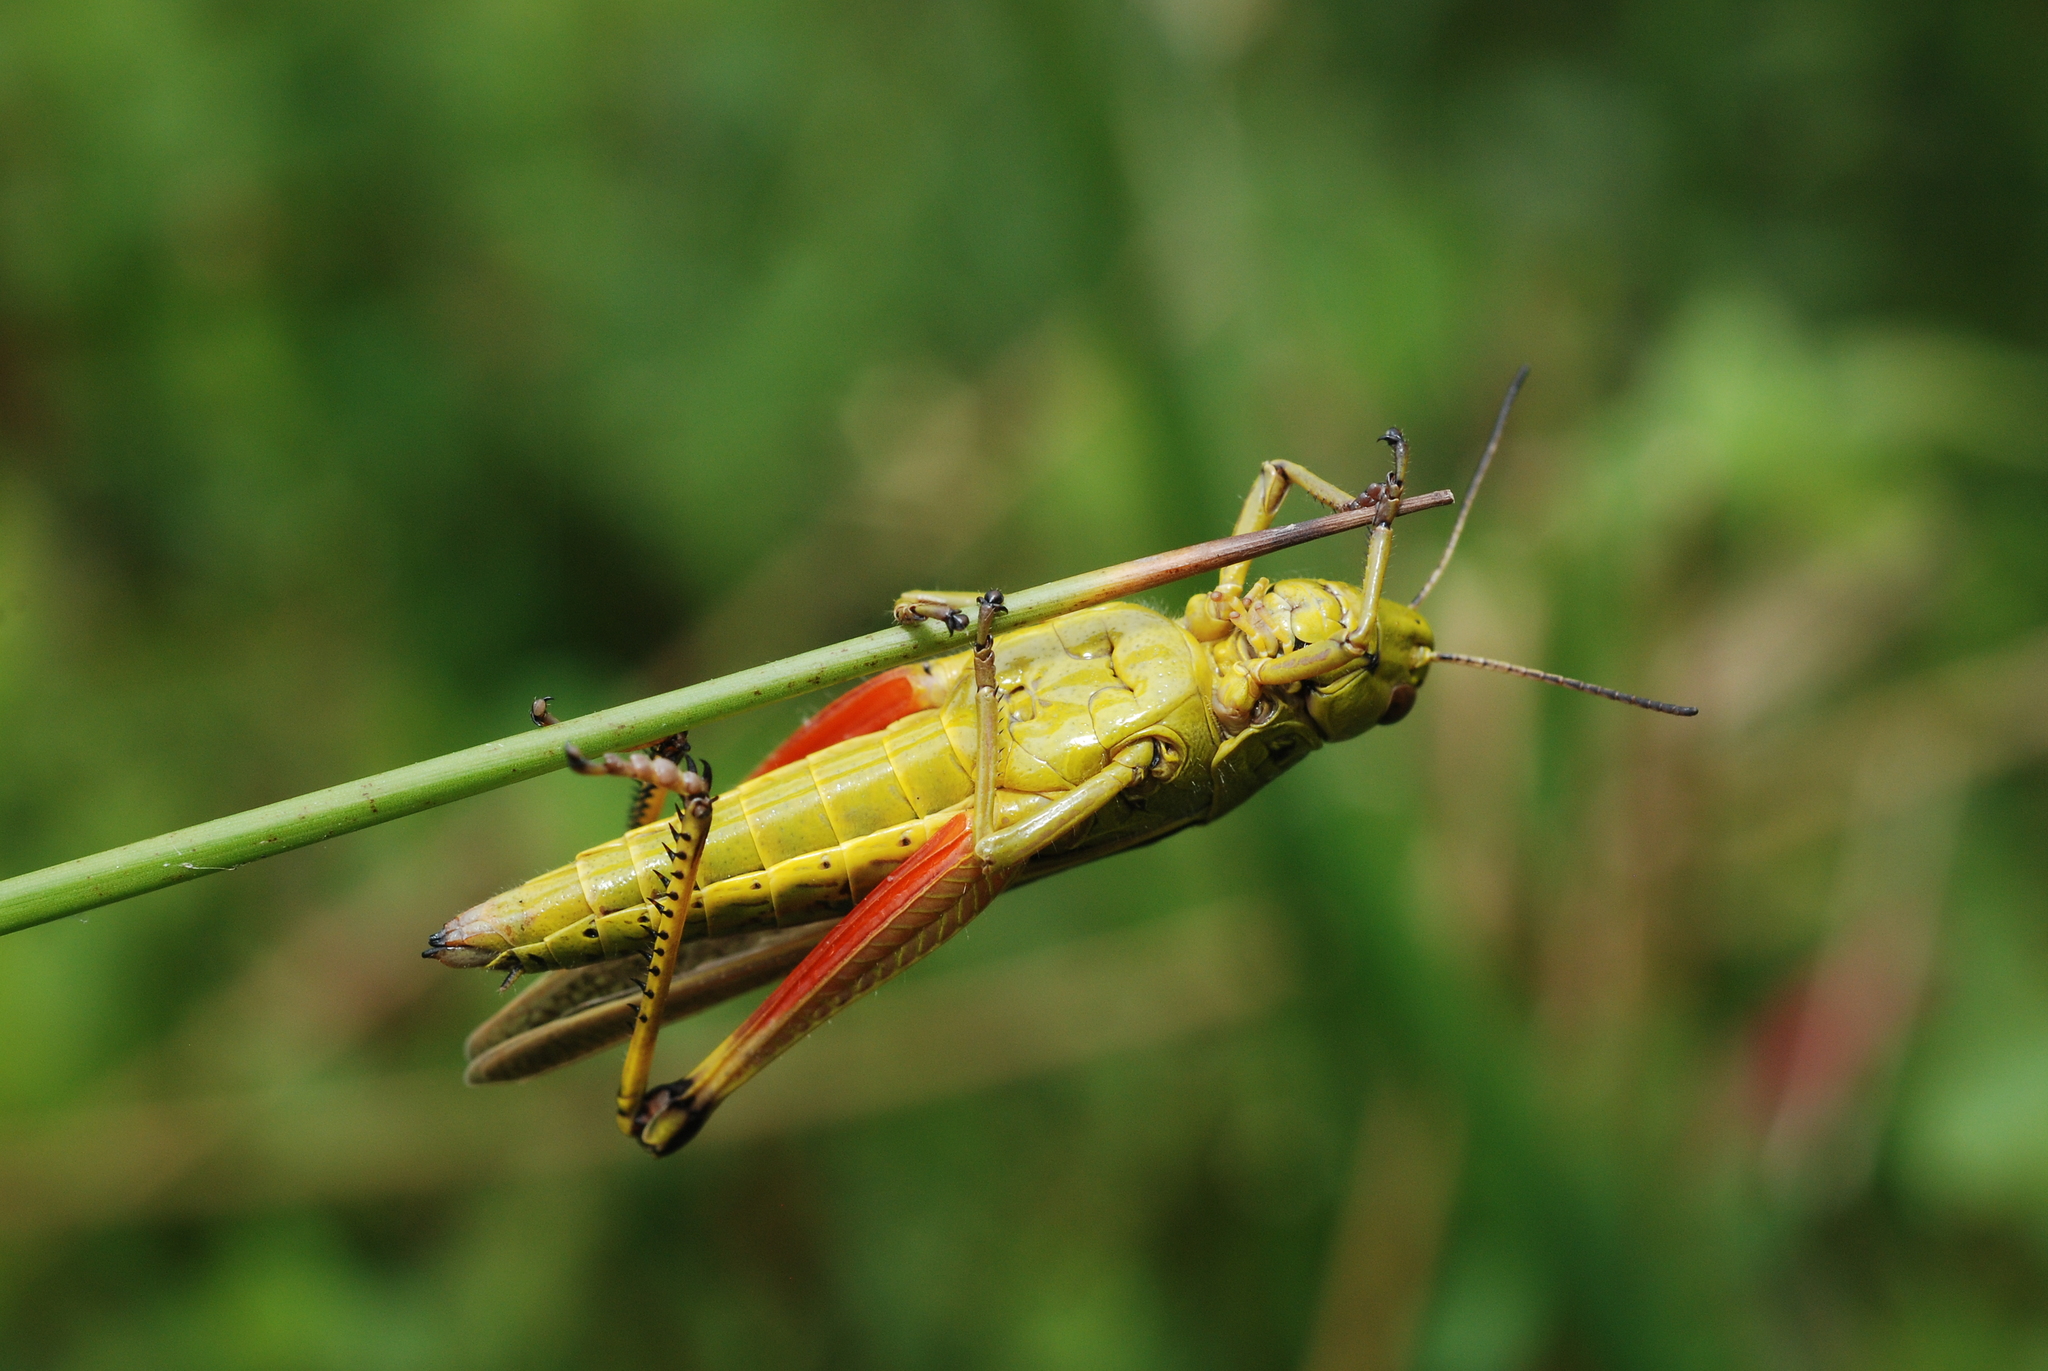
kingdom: Animalia
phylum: Arthropoda
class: Insecta
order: Orthoptera
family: Acrididae
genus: Stethophyma
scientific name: Stethophyma grossum
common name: Large marsh grasshopper
